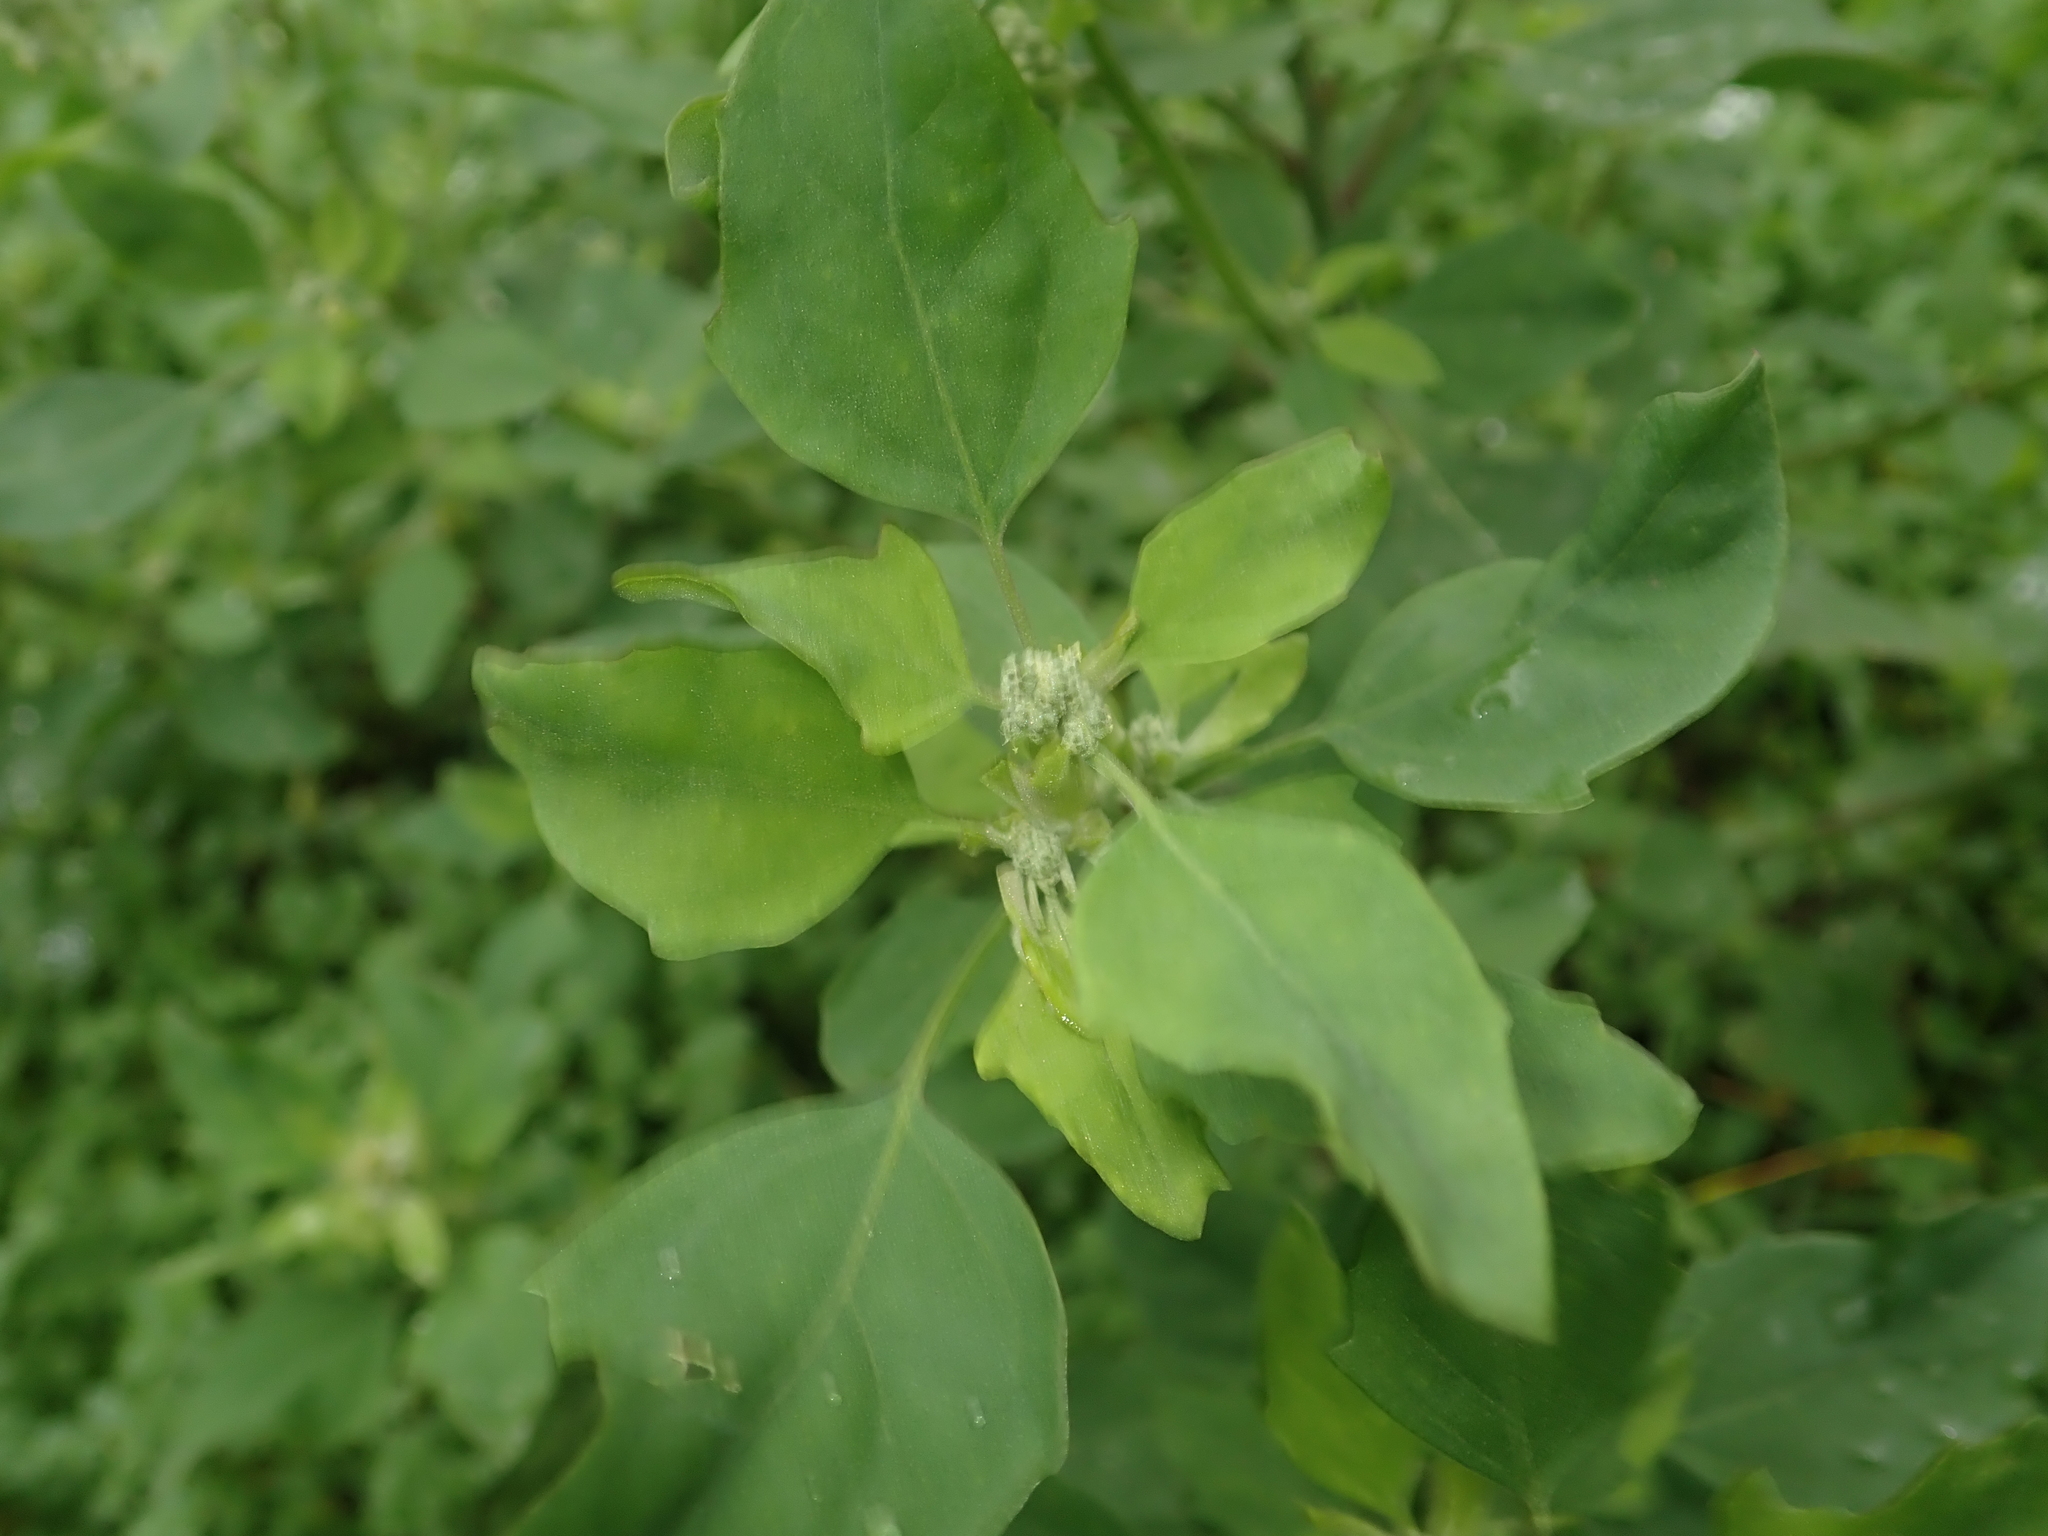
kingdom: Plantae
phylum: Tracheophyta
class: Magnoliopsida
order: Caryophyllales
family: Amaranthaceae
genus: Chenopodium
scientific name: Chenopodium album
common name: Fat-hen
